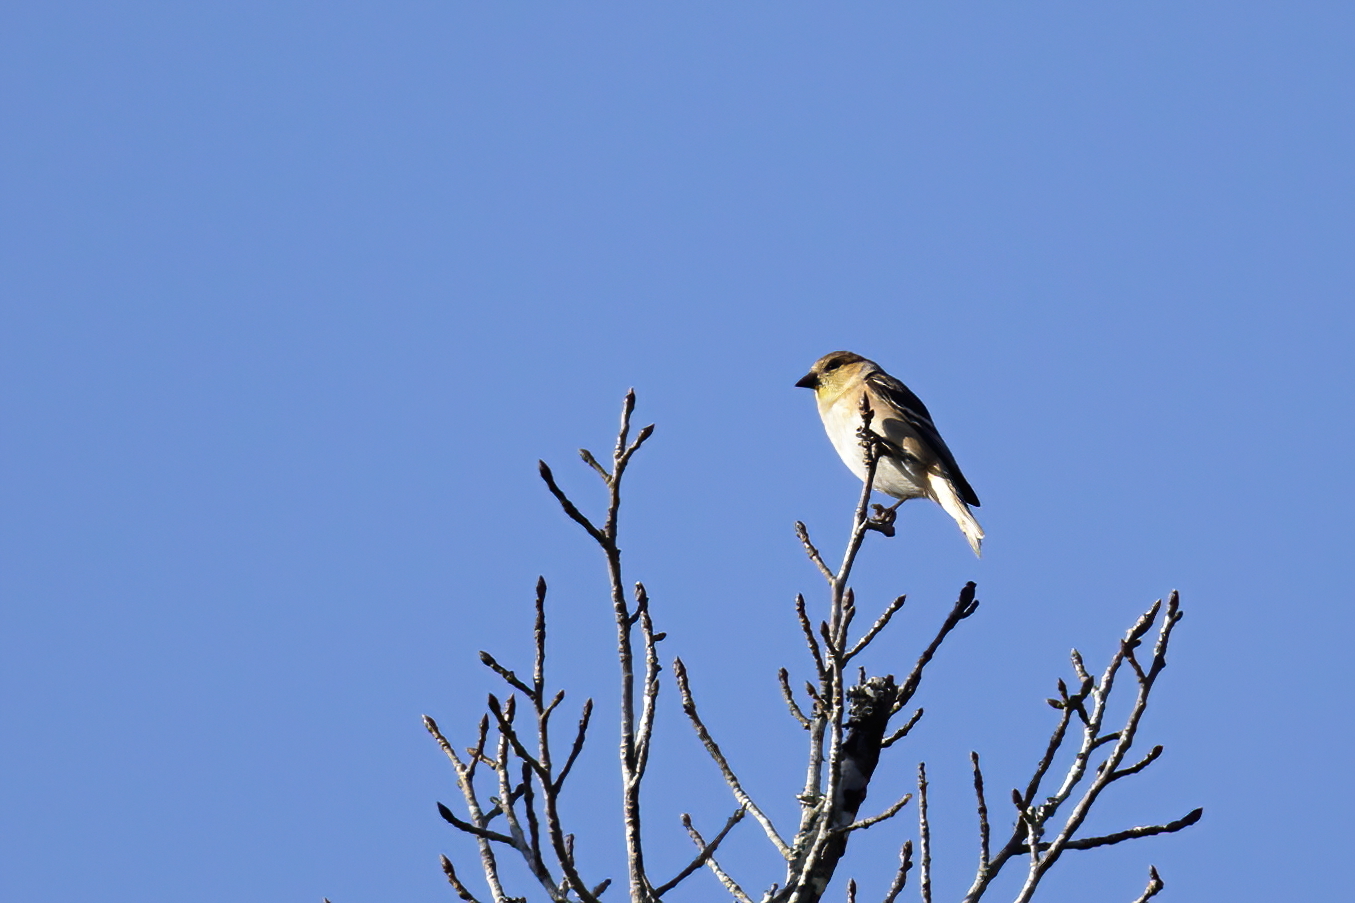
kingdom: Animalia
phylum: Chordata
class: Aves
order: Passeriformes
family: Fringillidae
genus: Spinus
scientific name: Spinus tristis
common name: American goldfinch
